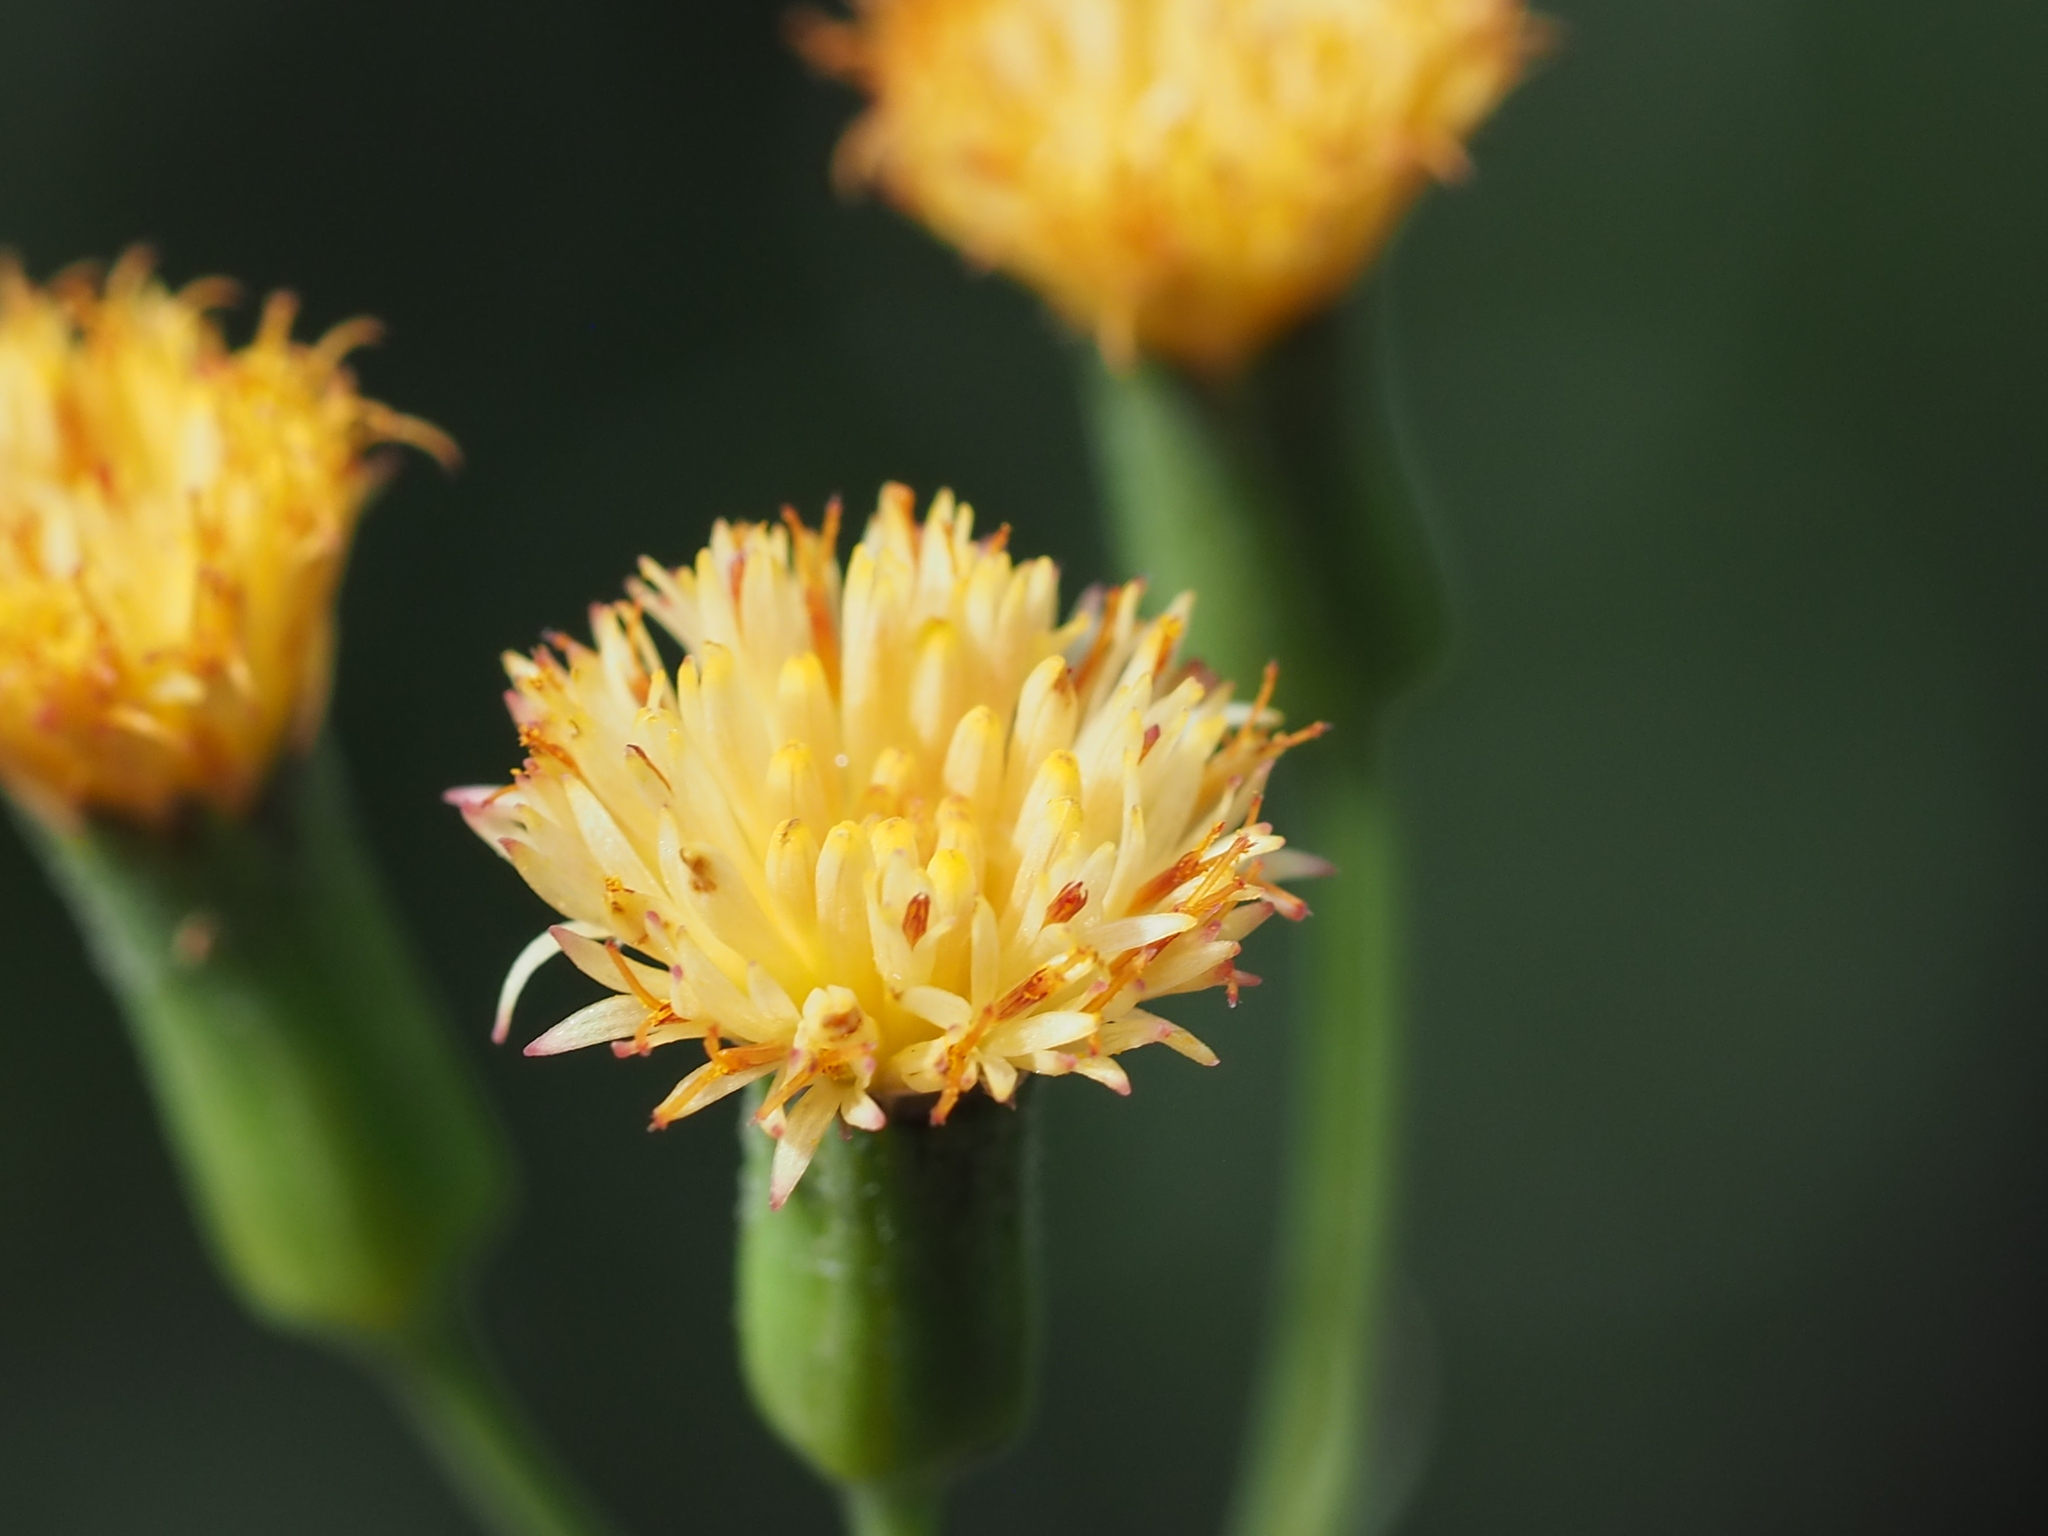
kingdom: Plantae
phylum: Tracheophyta
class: Magnoliopsida
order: Asterales
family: Asteraceae
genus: Emilia
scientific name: Emilia praetermissa
